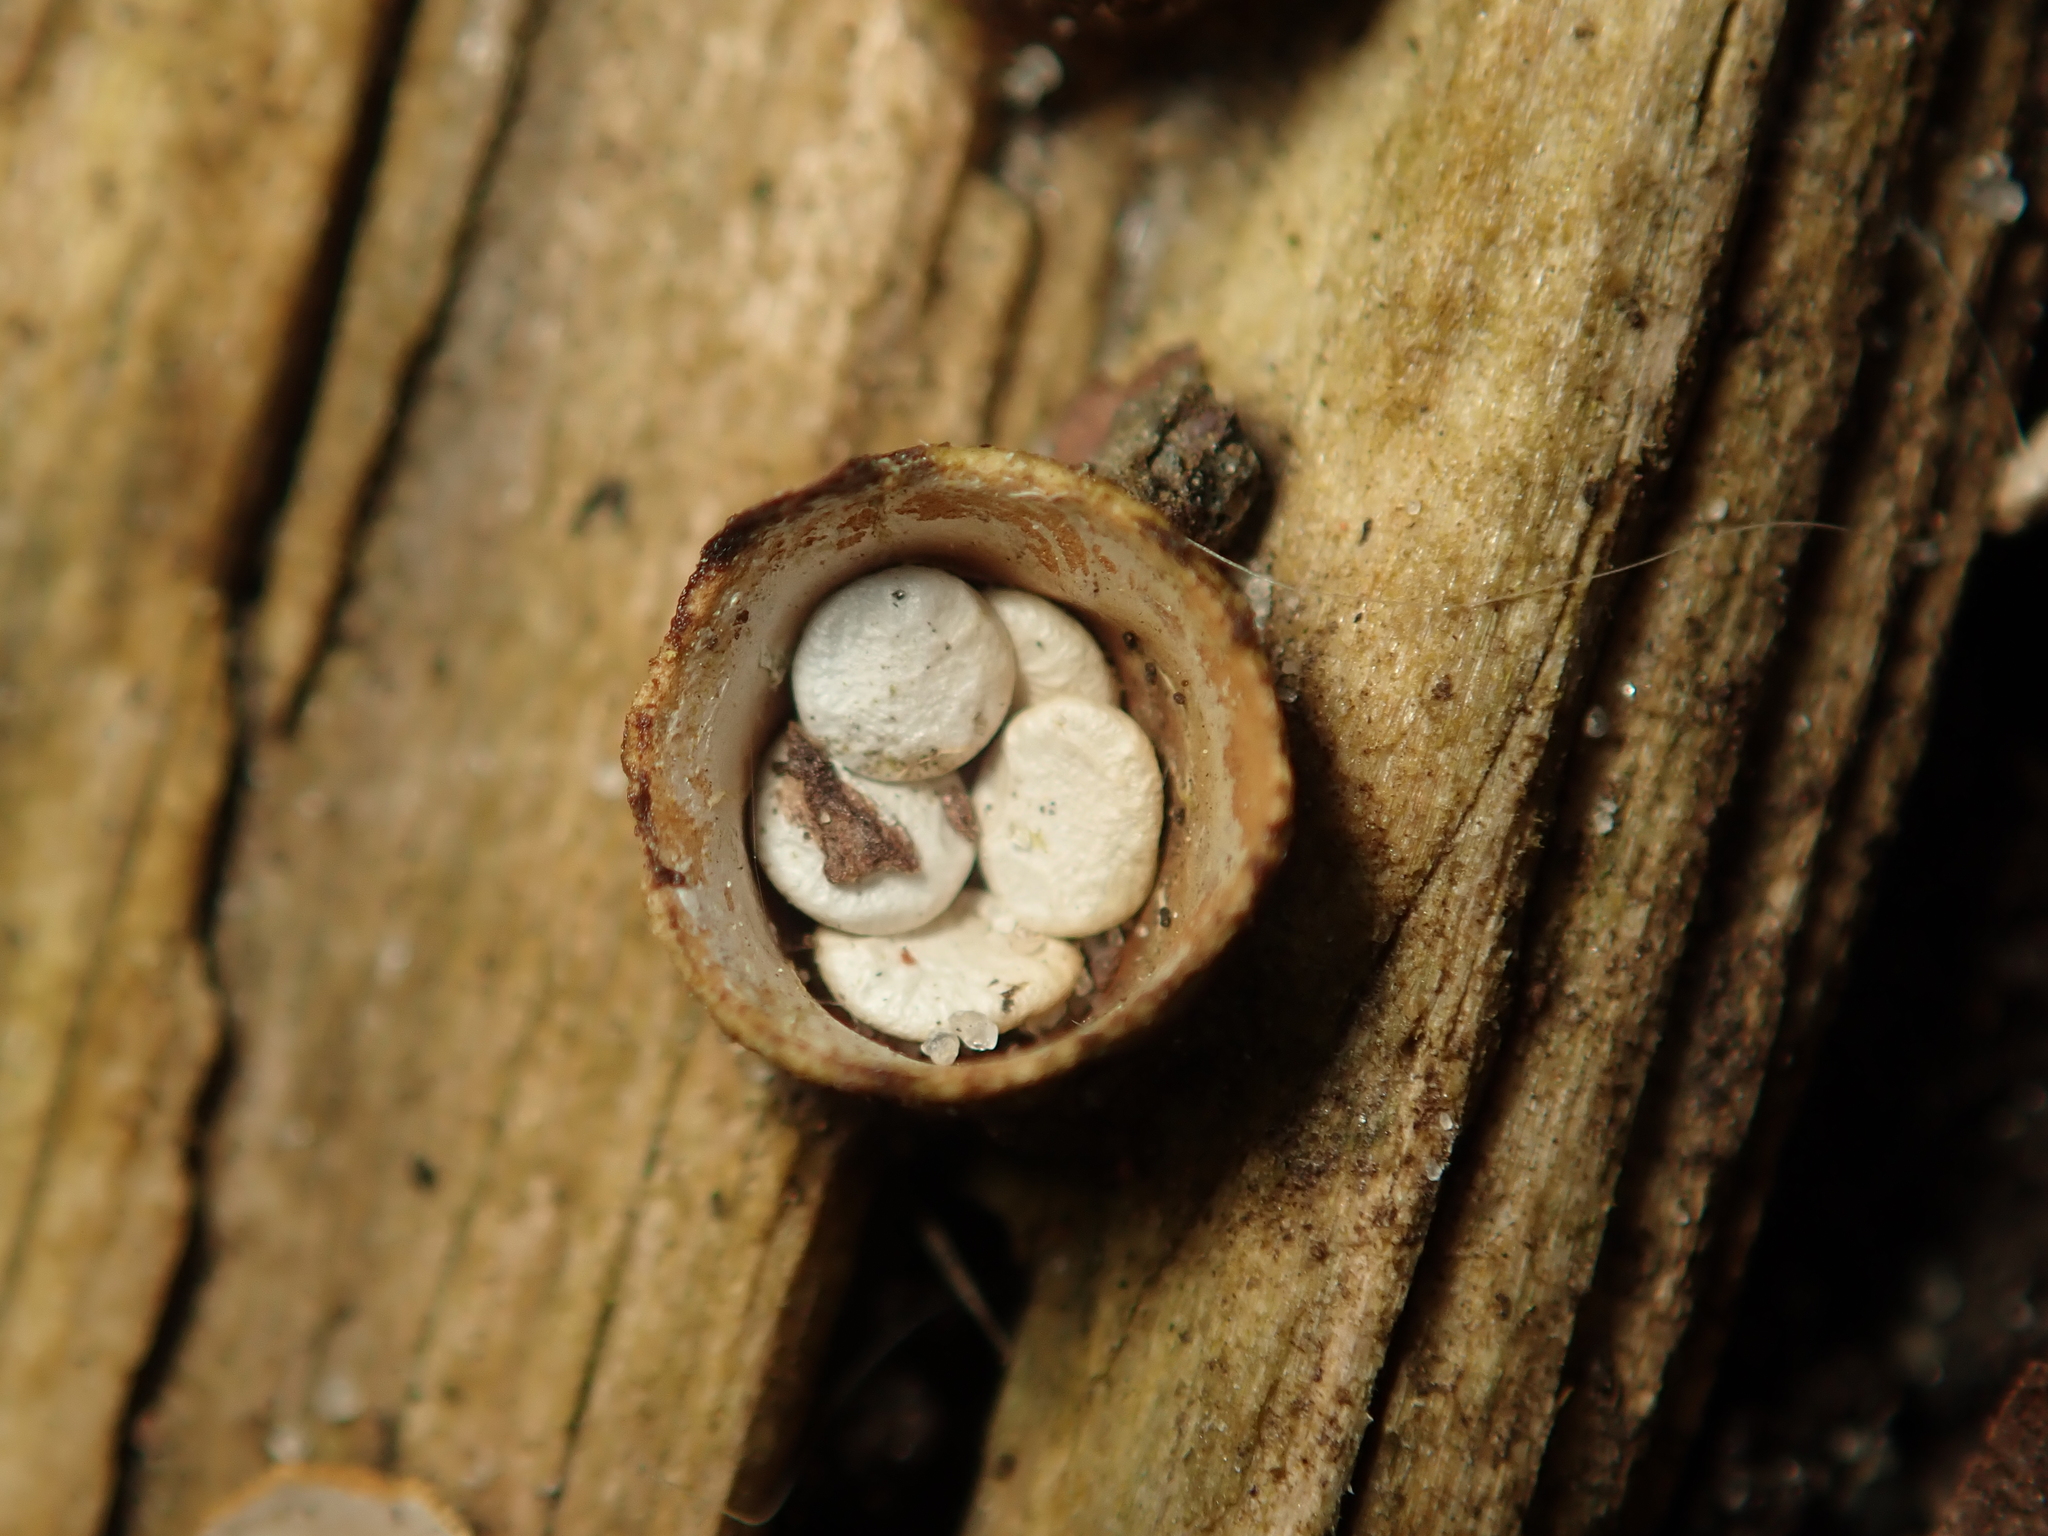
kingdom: Fungi
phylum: Basidiomycota
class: Agaricomycetes
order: Agaricales
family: Nidulariaceae
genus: Crucibulum
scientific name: Crucibulum laeve
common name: Common bird's nest
